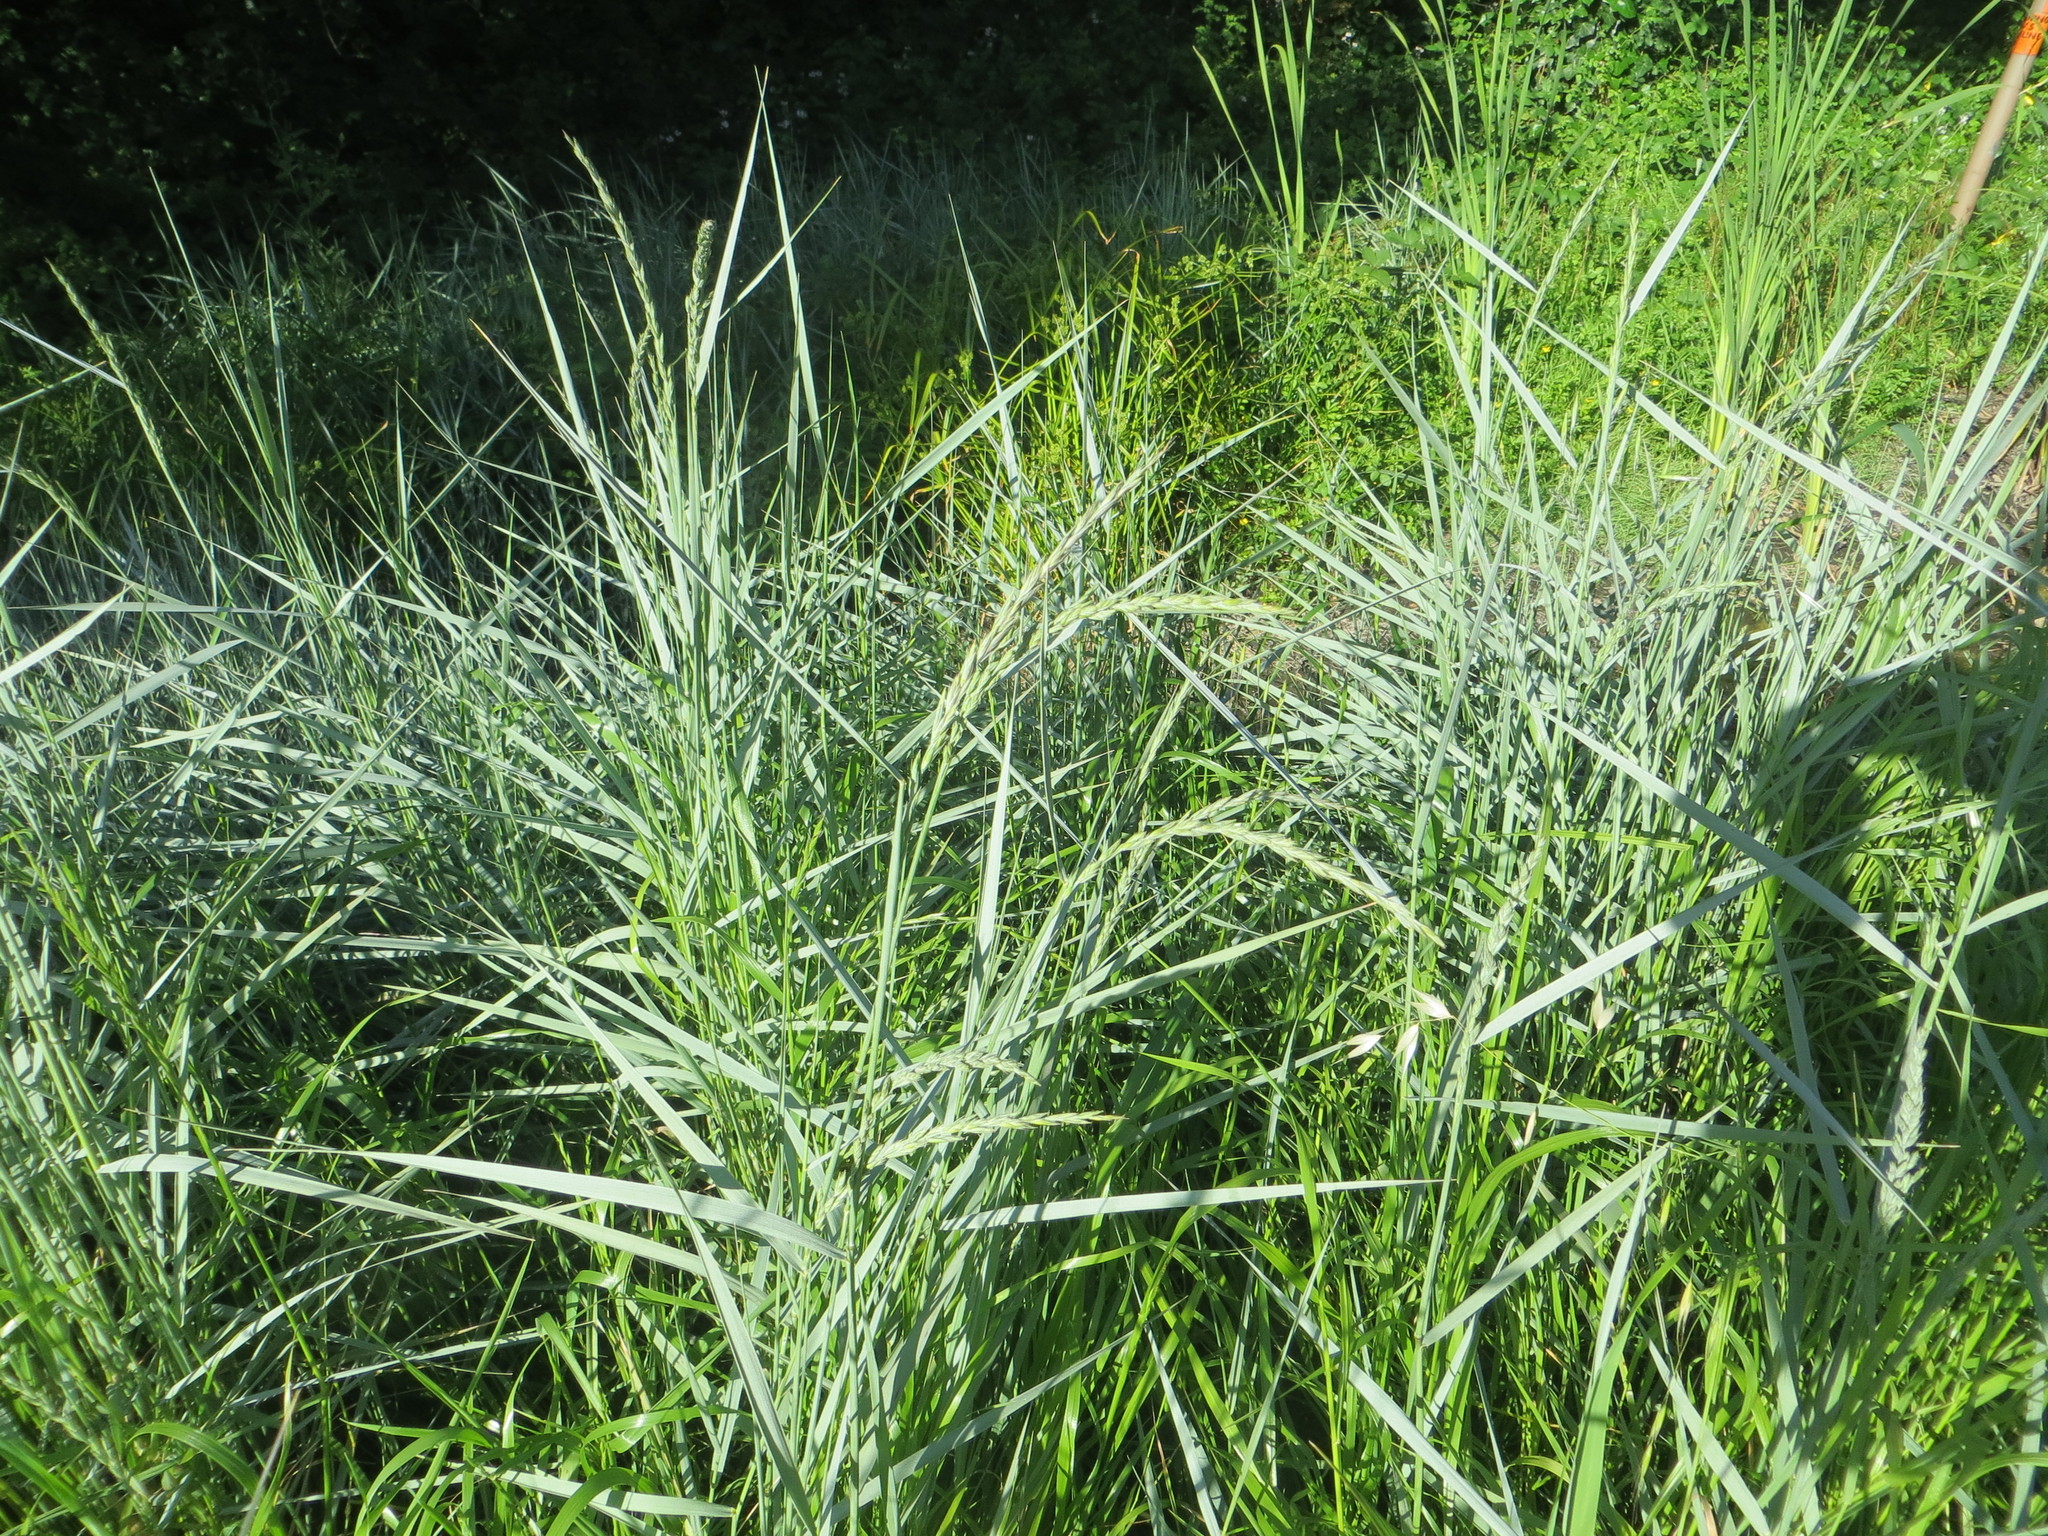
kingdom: Plantae
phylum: Tracheophyta
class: Liliopsida
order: Poales
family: Poaceae
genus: Leymus
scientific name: Leymus triticoides
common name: Beardless wild rye
